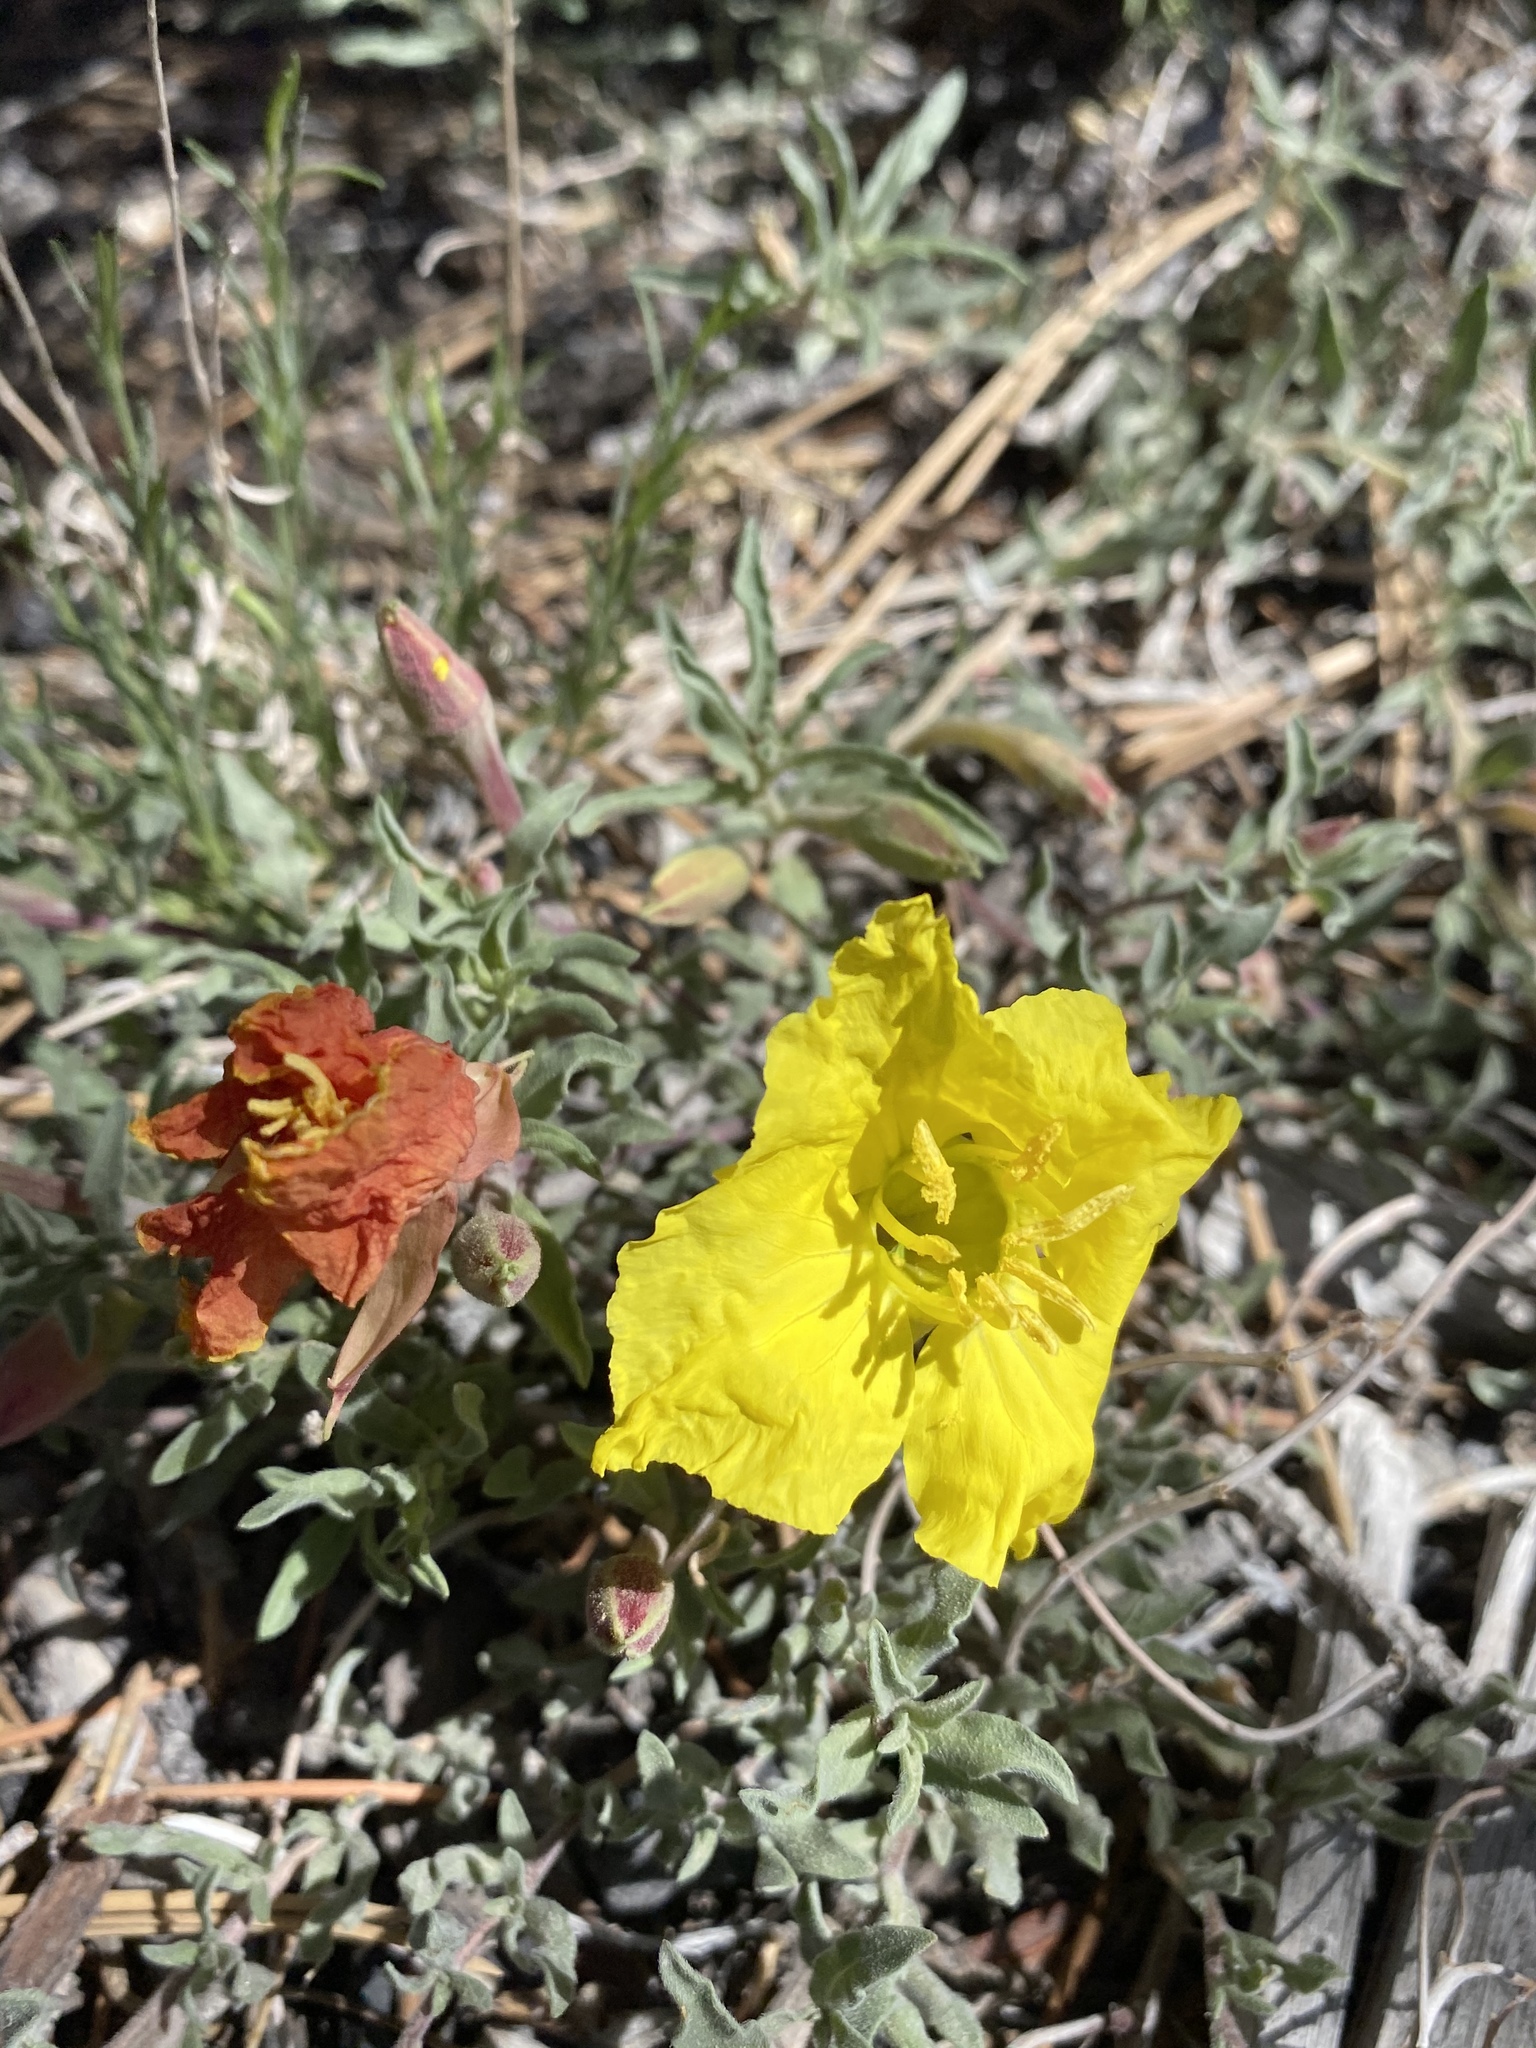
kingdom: Plantae
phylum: Tracheophyta
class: Magnoliopsida
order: Myrtales
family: Onagraceae
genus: Oenothera
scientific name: Oenothera lavandulifolia
